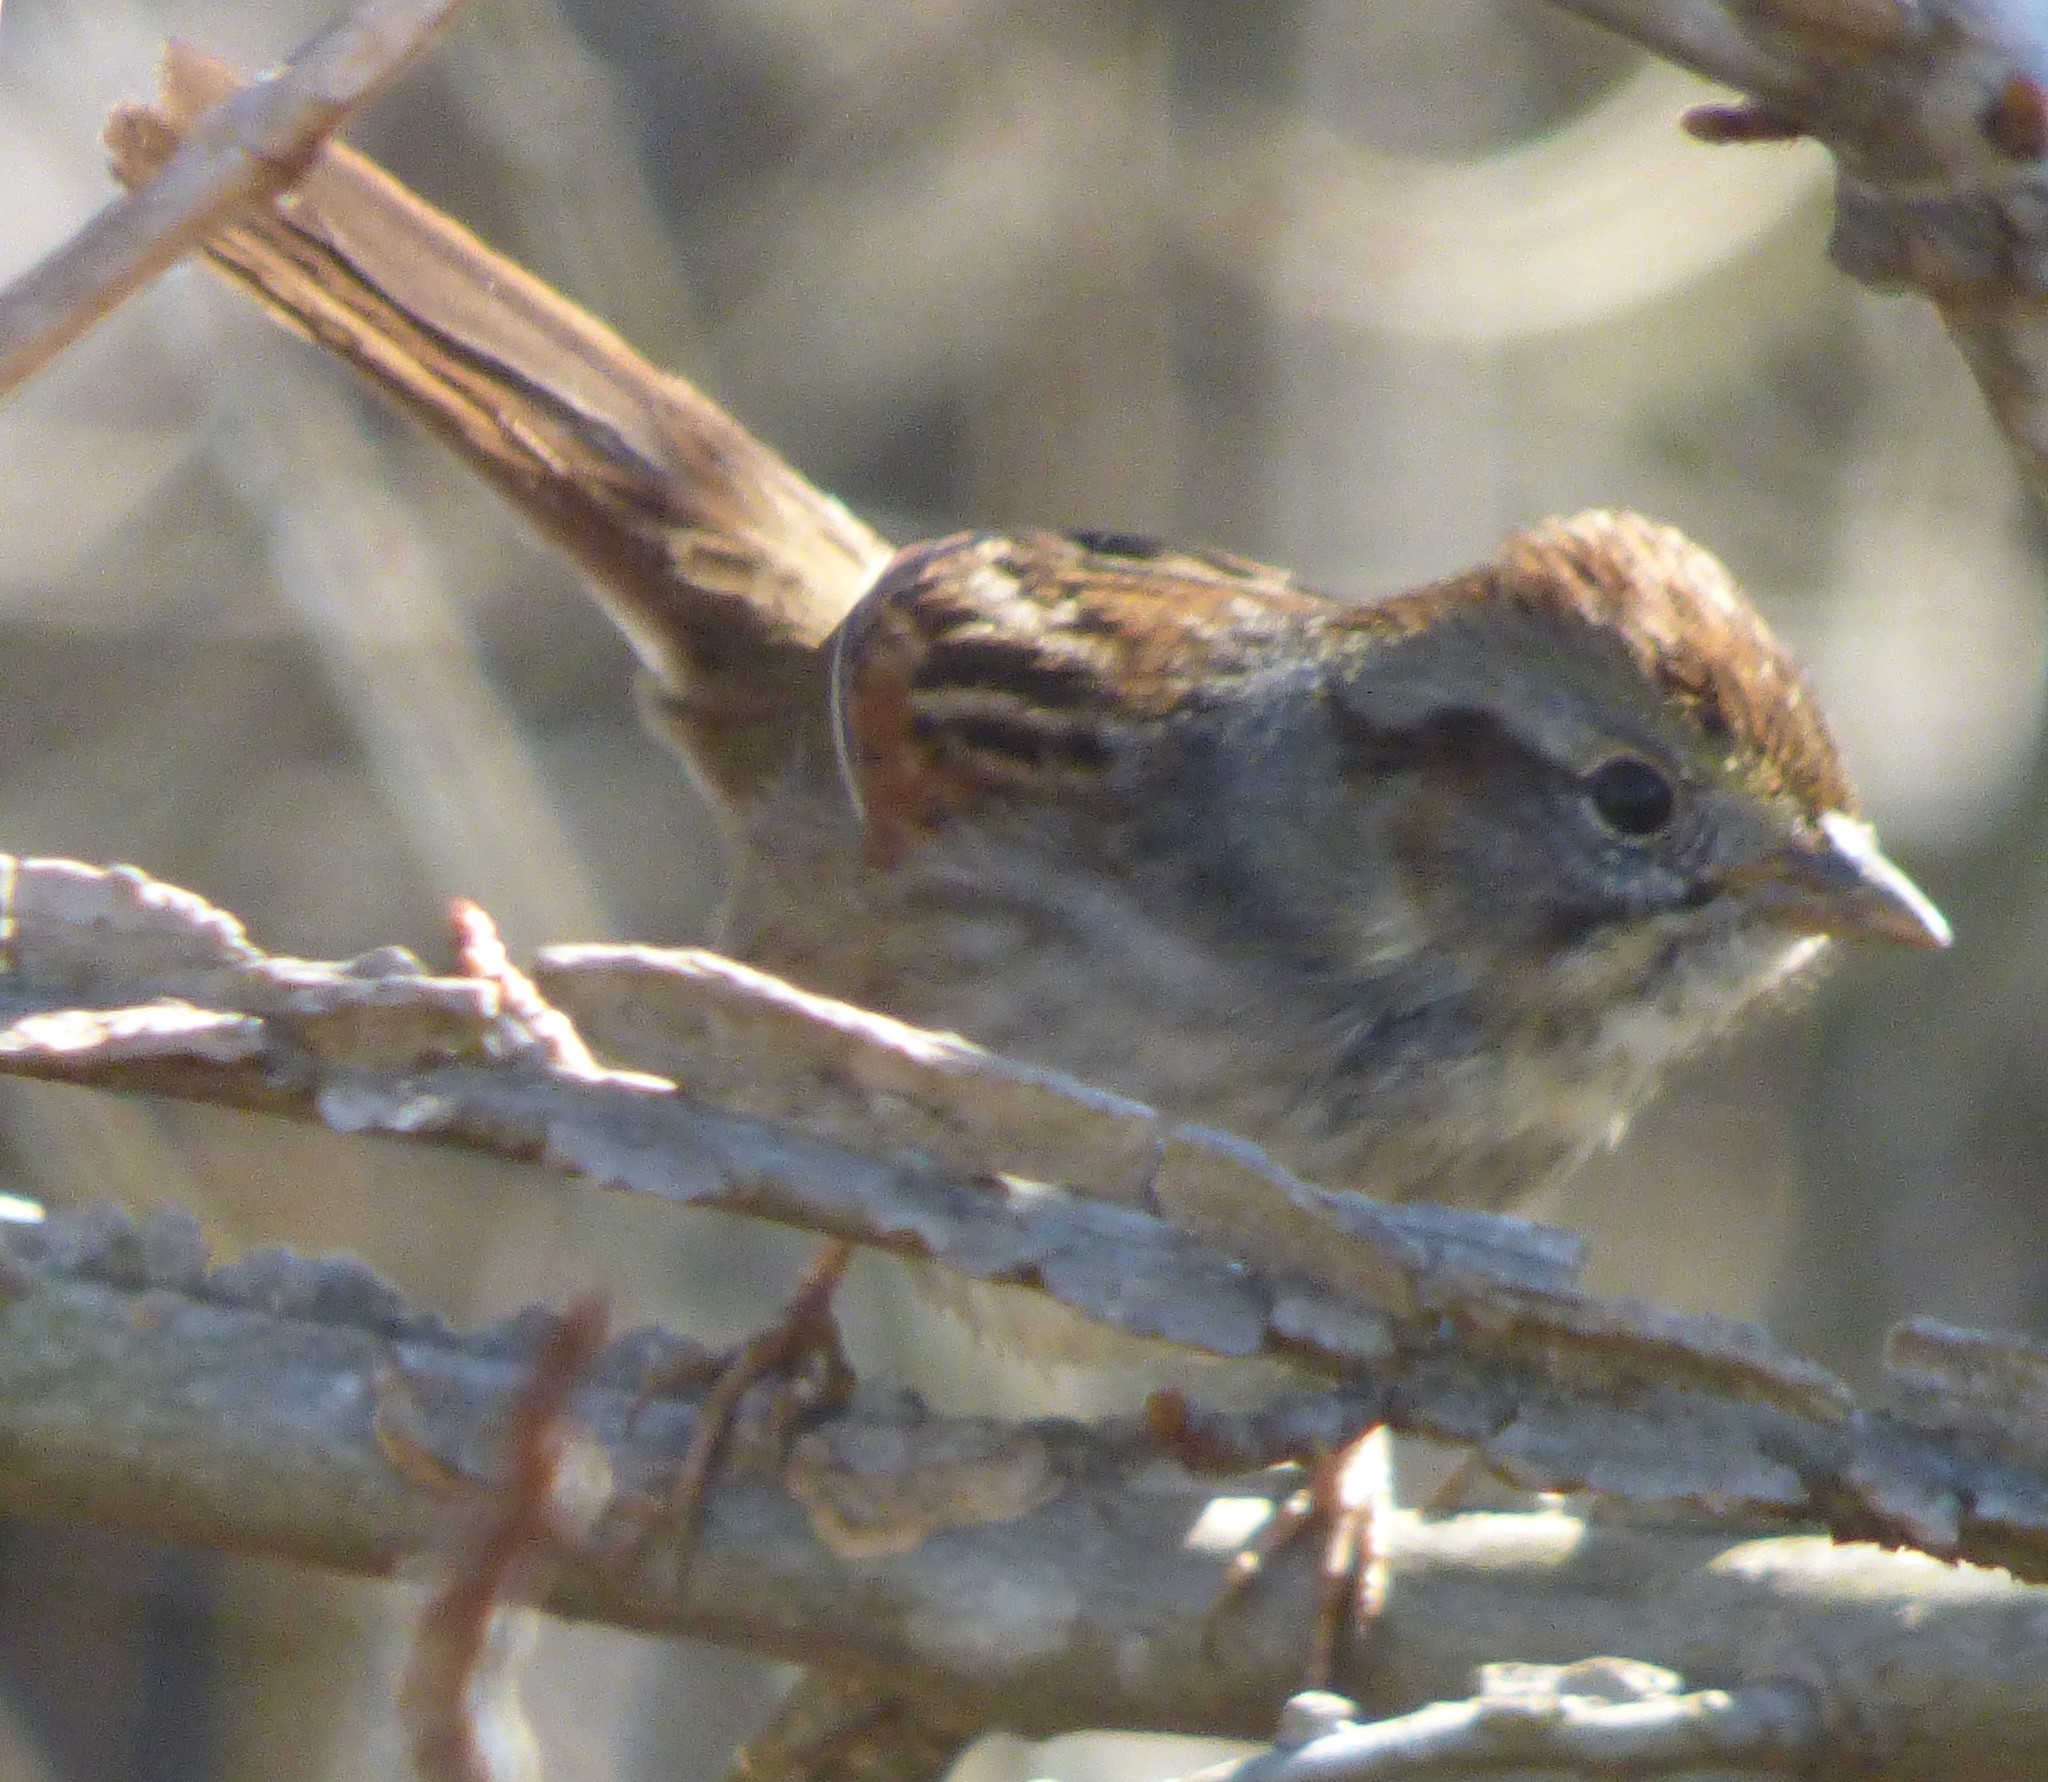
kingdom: Animalia
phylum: Chordata
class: Aves
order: Passeriformes
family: Passerellidae
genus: Melospiza
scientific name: Melospiza georgiana
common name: Swamp sparrow
